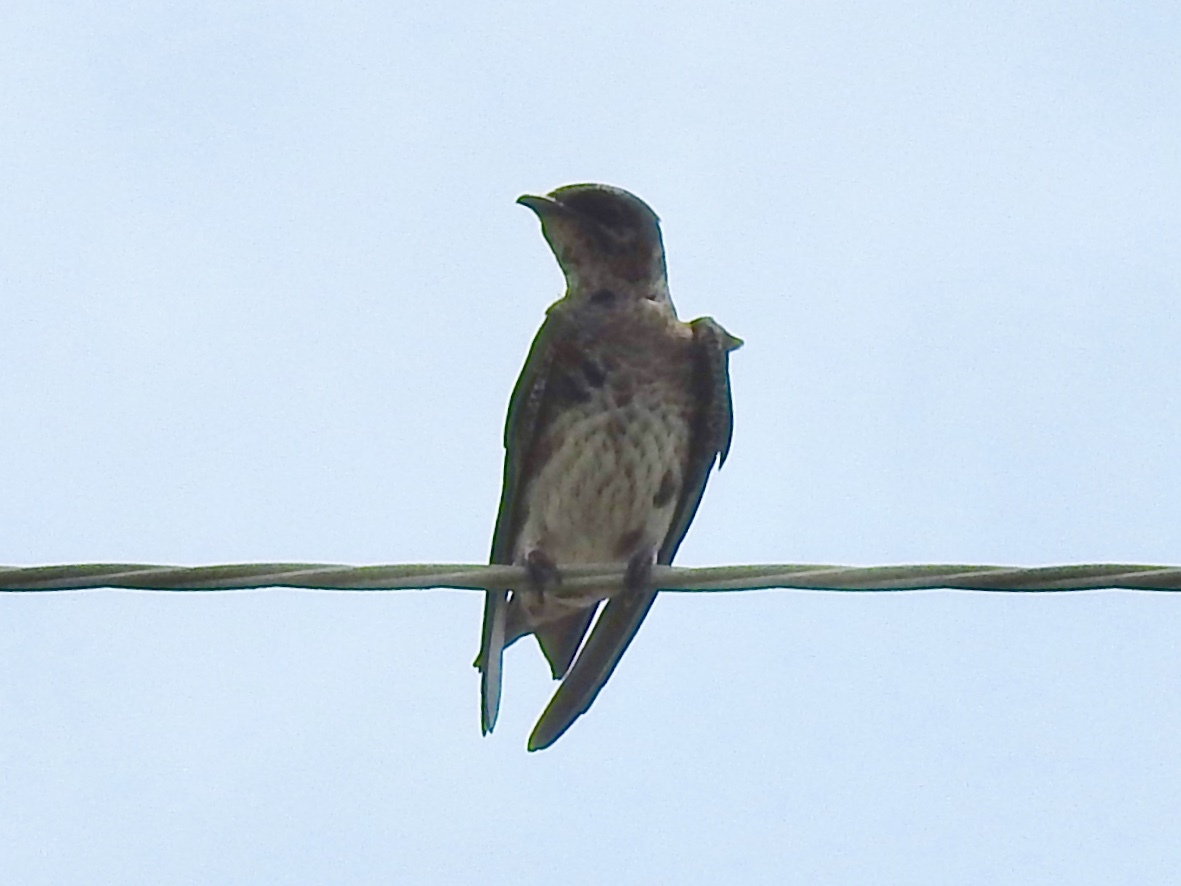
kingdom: Animalia
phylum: Chordata
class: Aves
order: Passeriformes
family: Hirundinidae
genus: Progne
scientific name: Progne subis
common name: Purple martin
